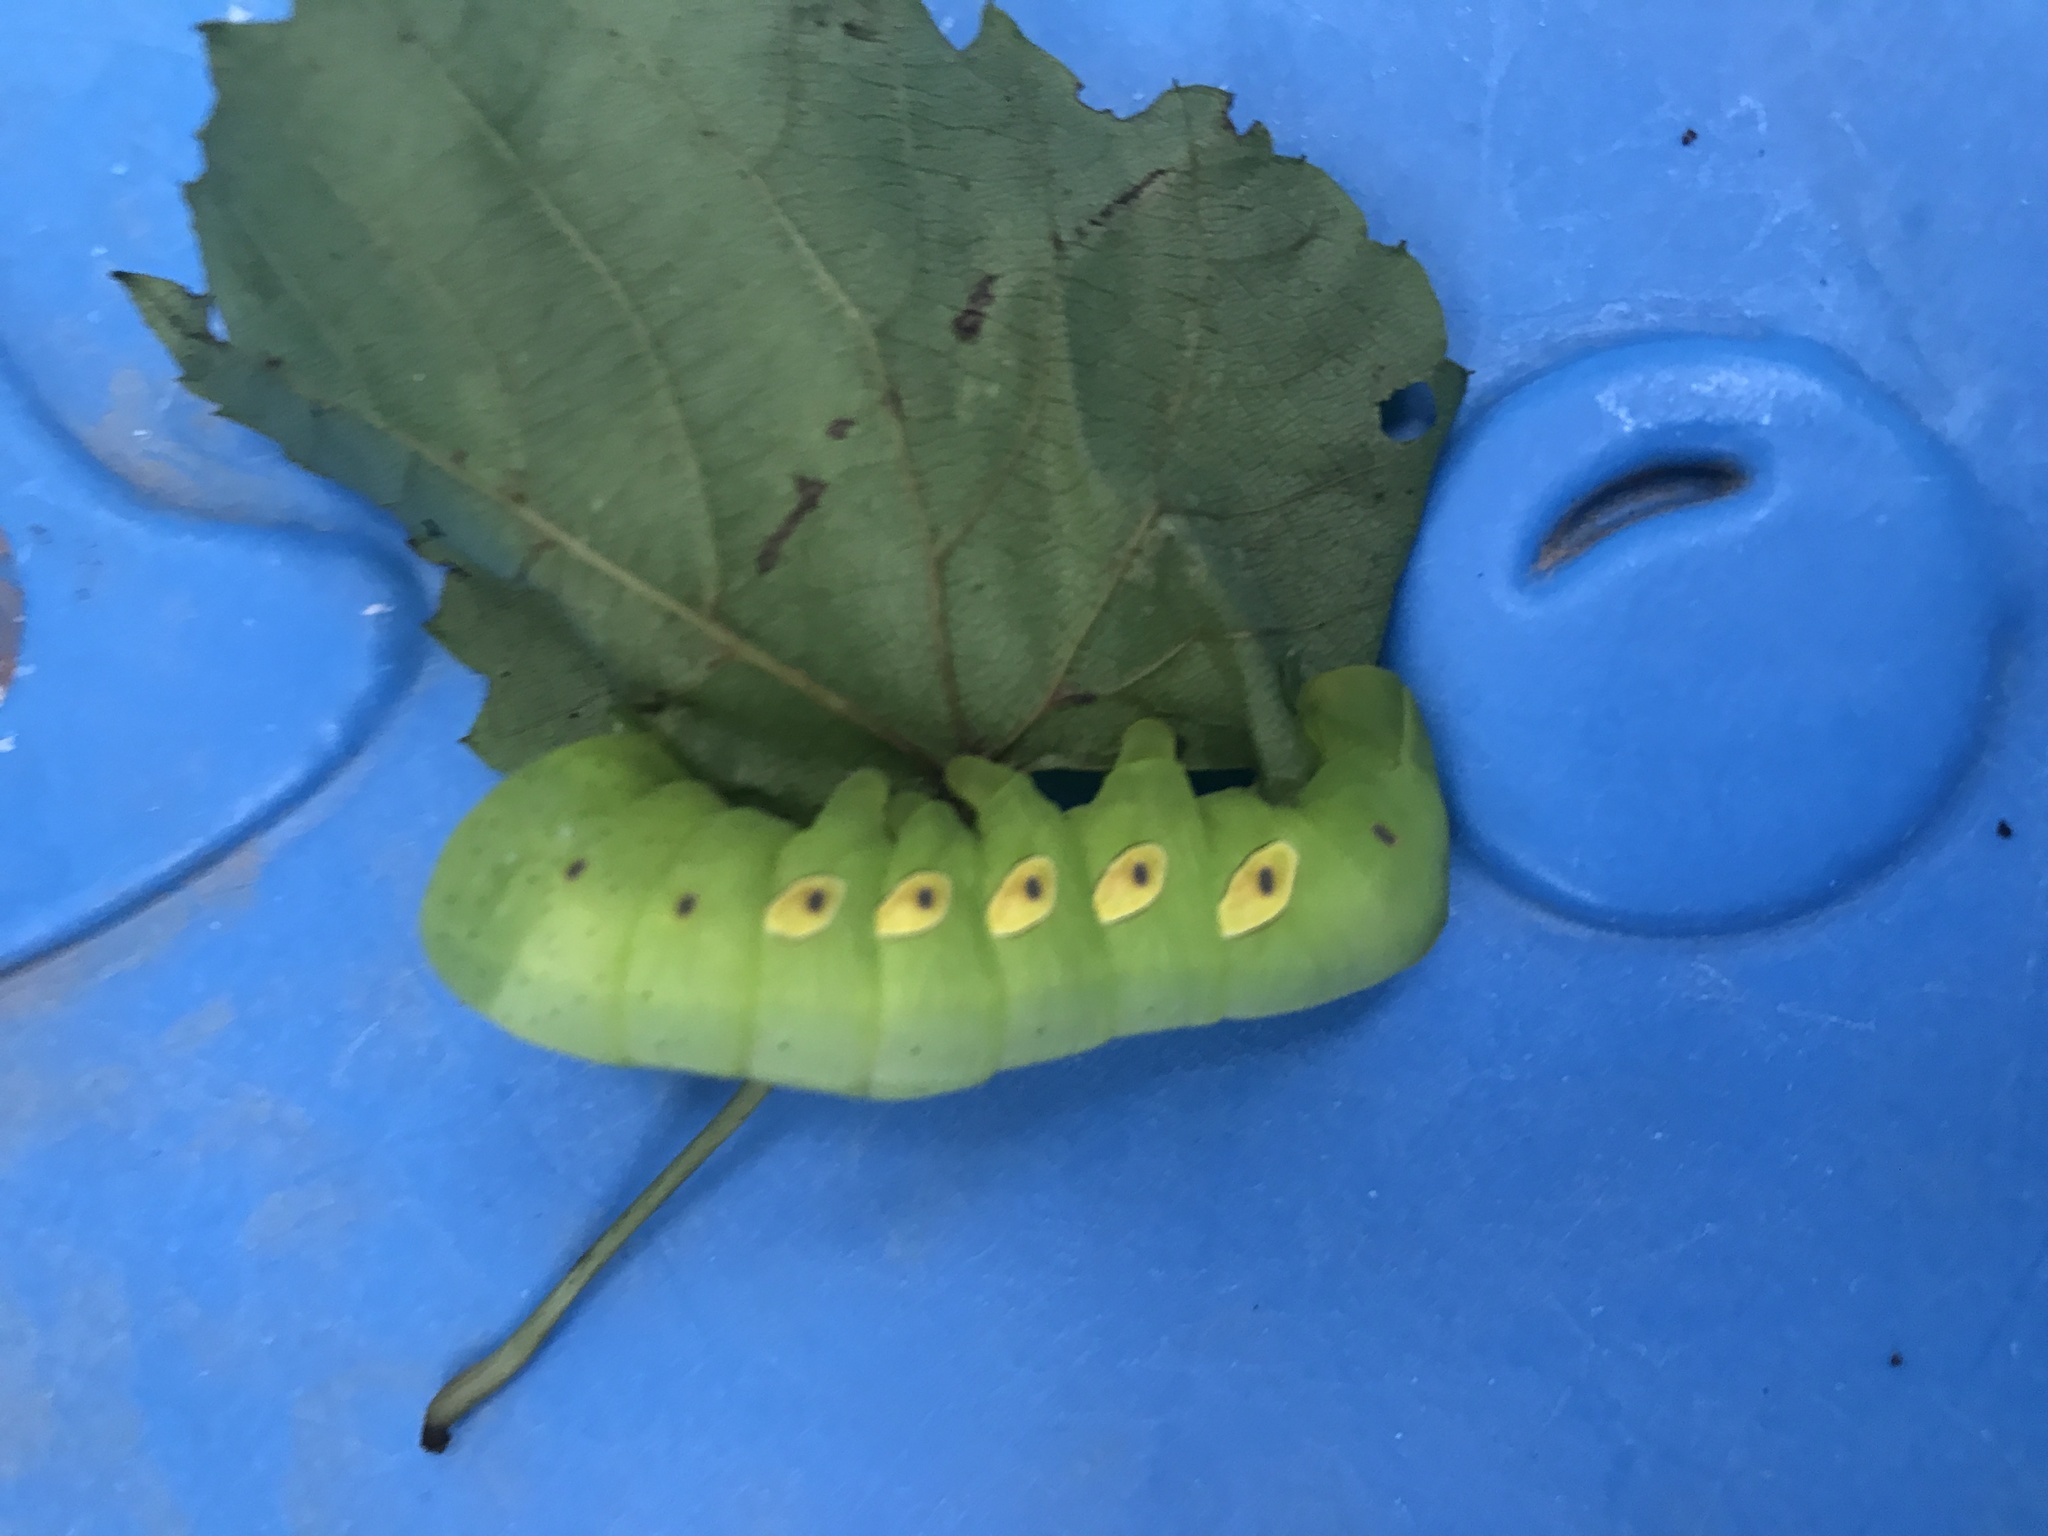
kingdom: Animalia
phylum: Arthropoda
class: Insecta
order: Lepidoptera
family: Sphingidae
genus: Eumorpha
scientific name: Eumorpha pandorus
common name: Pandora sphinx
